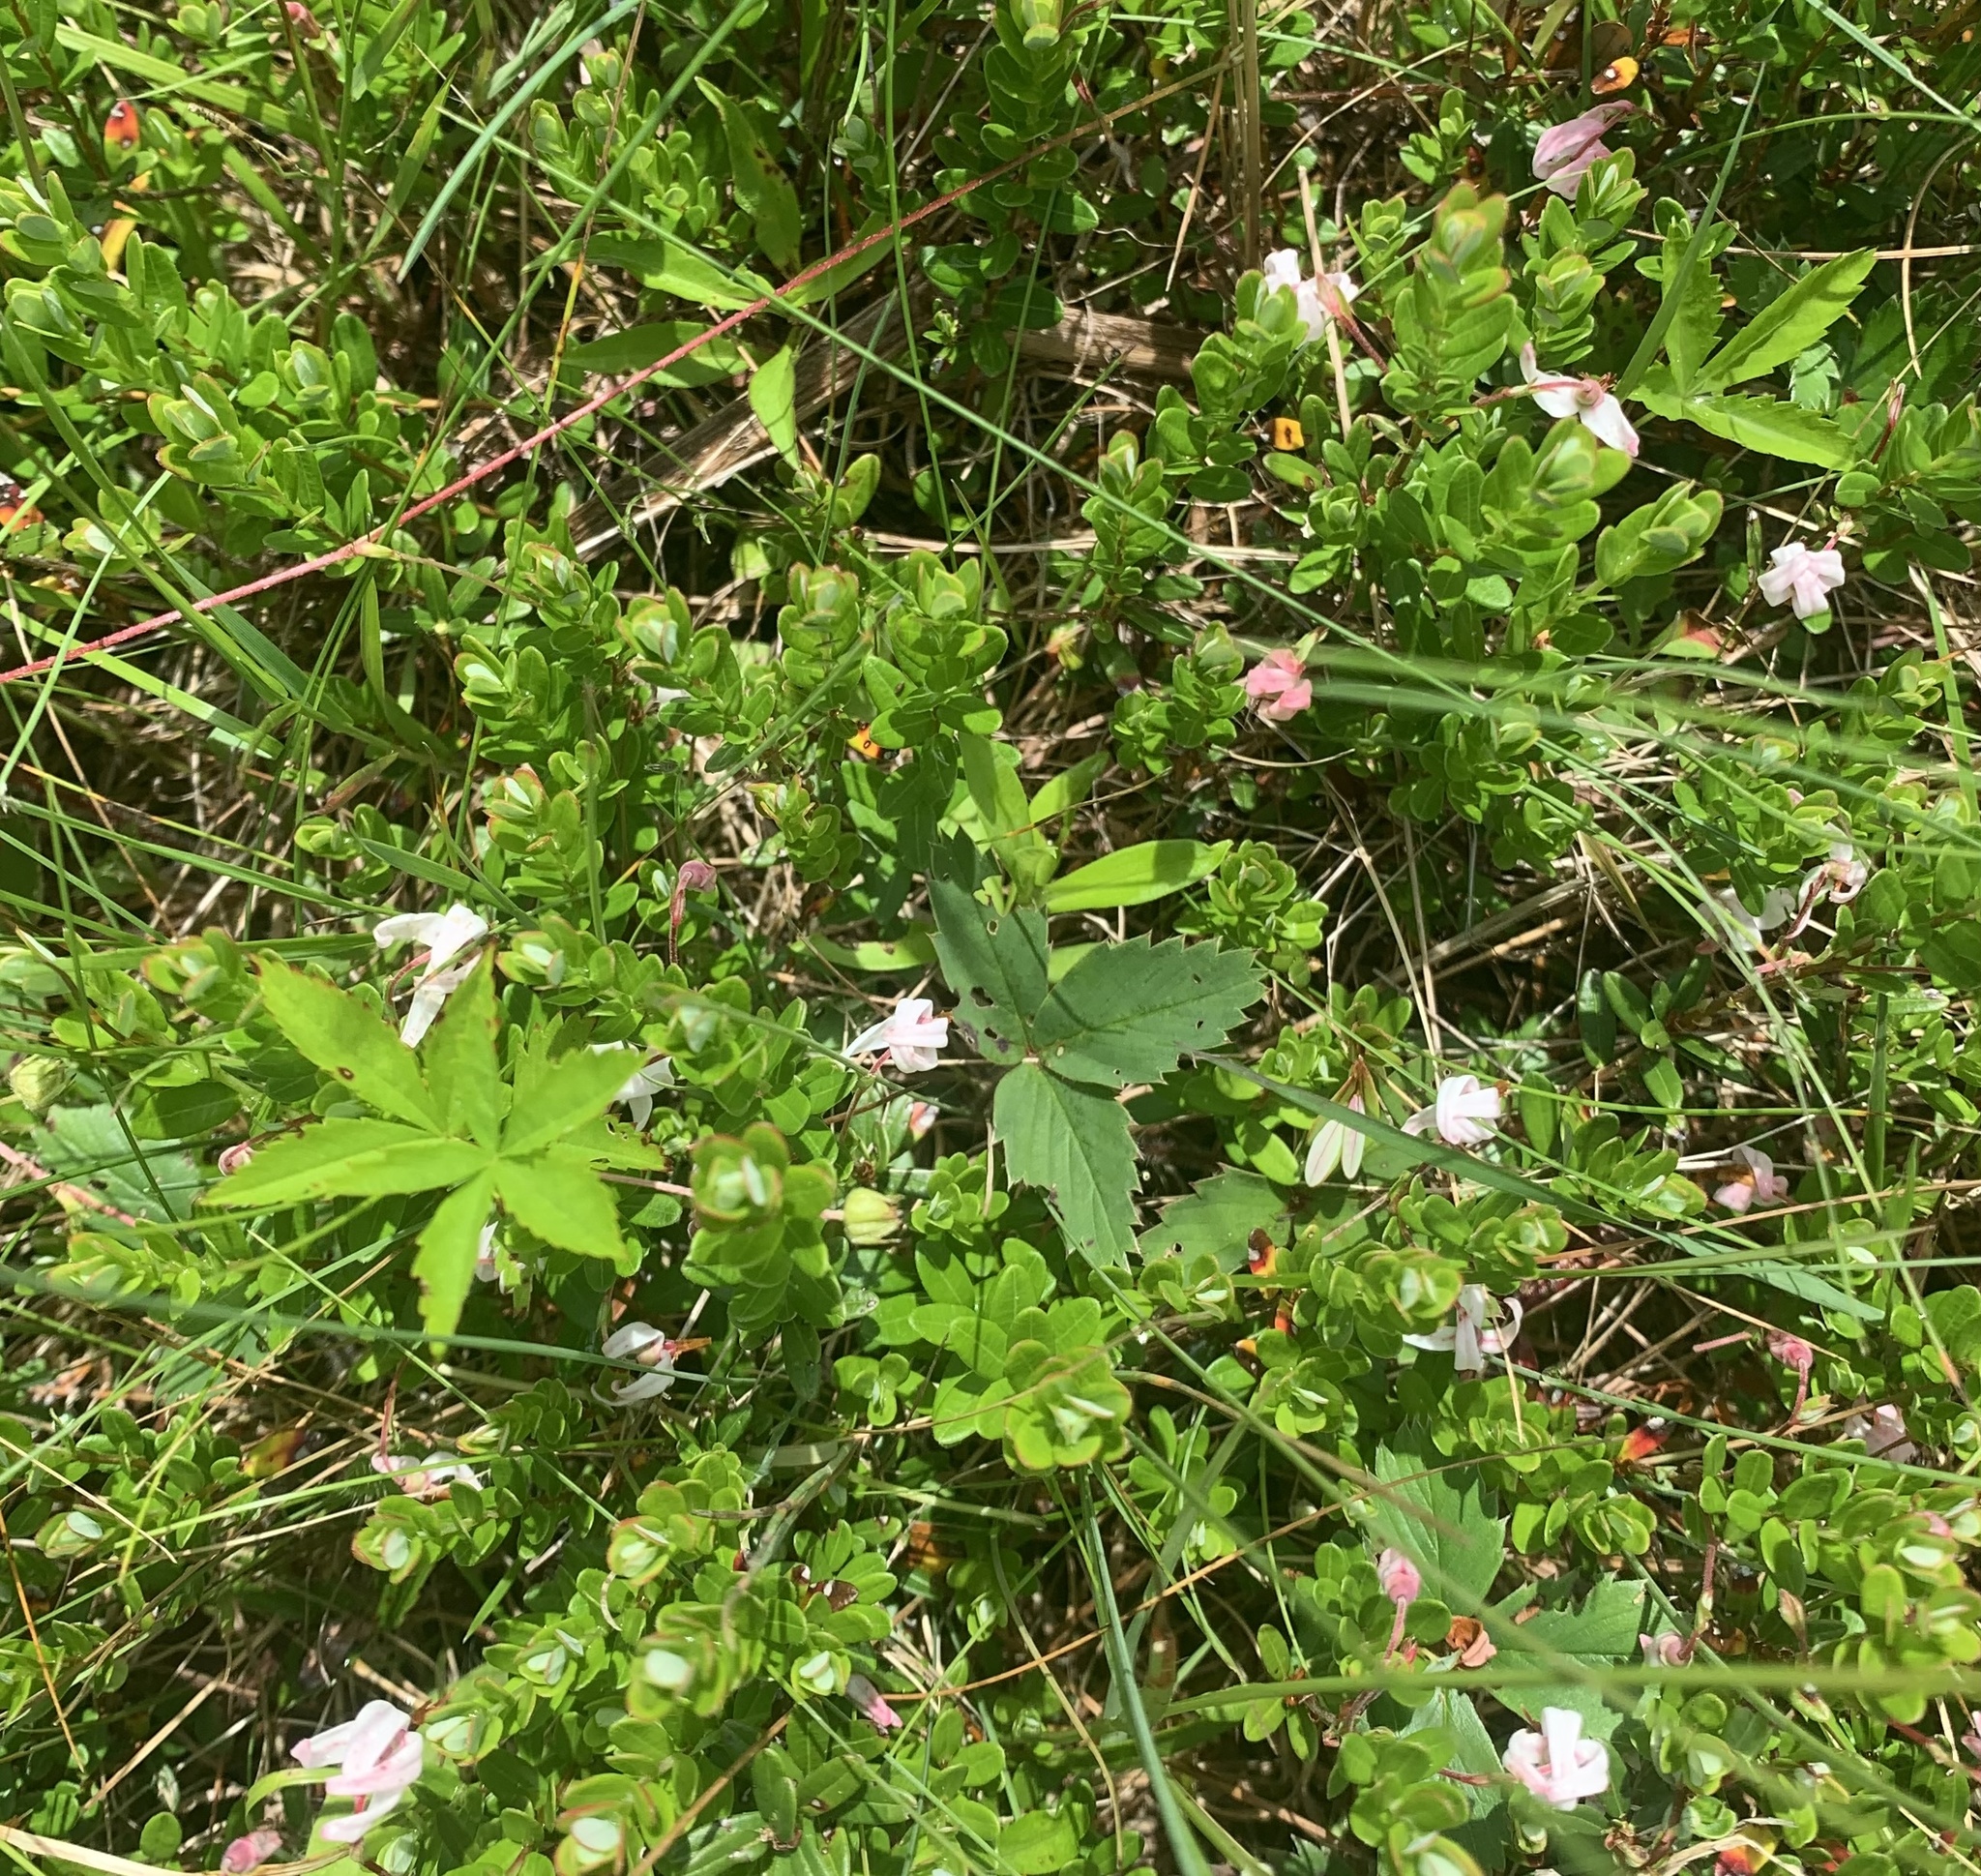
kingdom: Plantae
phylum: Tracheophyta
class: Magnoliopsida
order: Ericales
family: Ericaceae
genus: Vaccinium
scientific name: Vaccinium macrocarpon
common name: American cranberry
